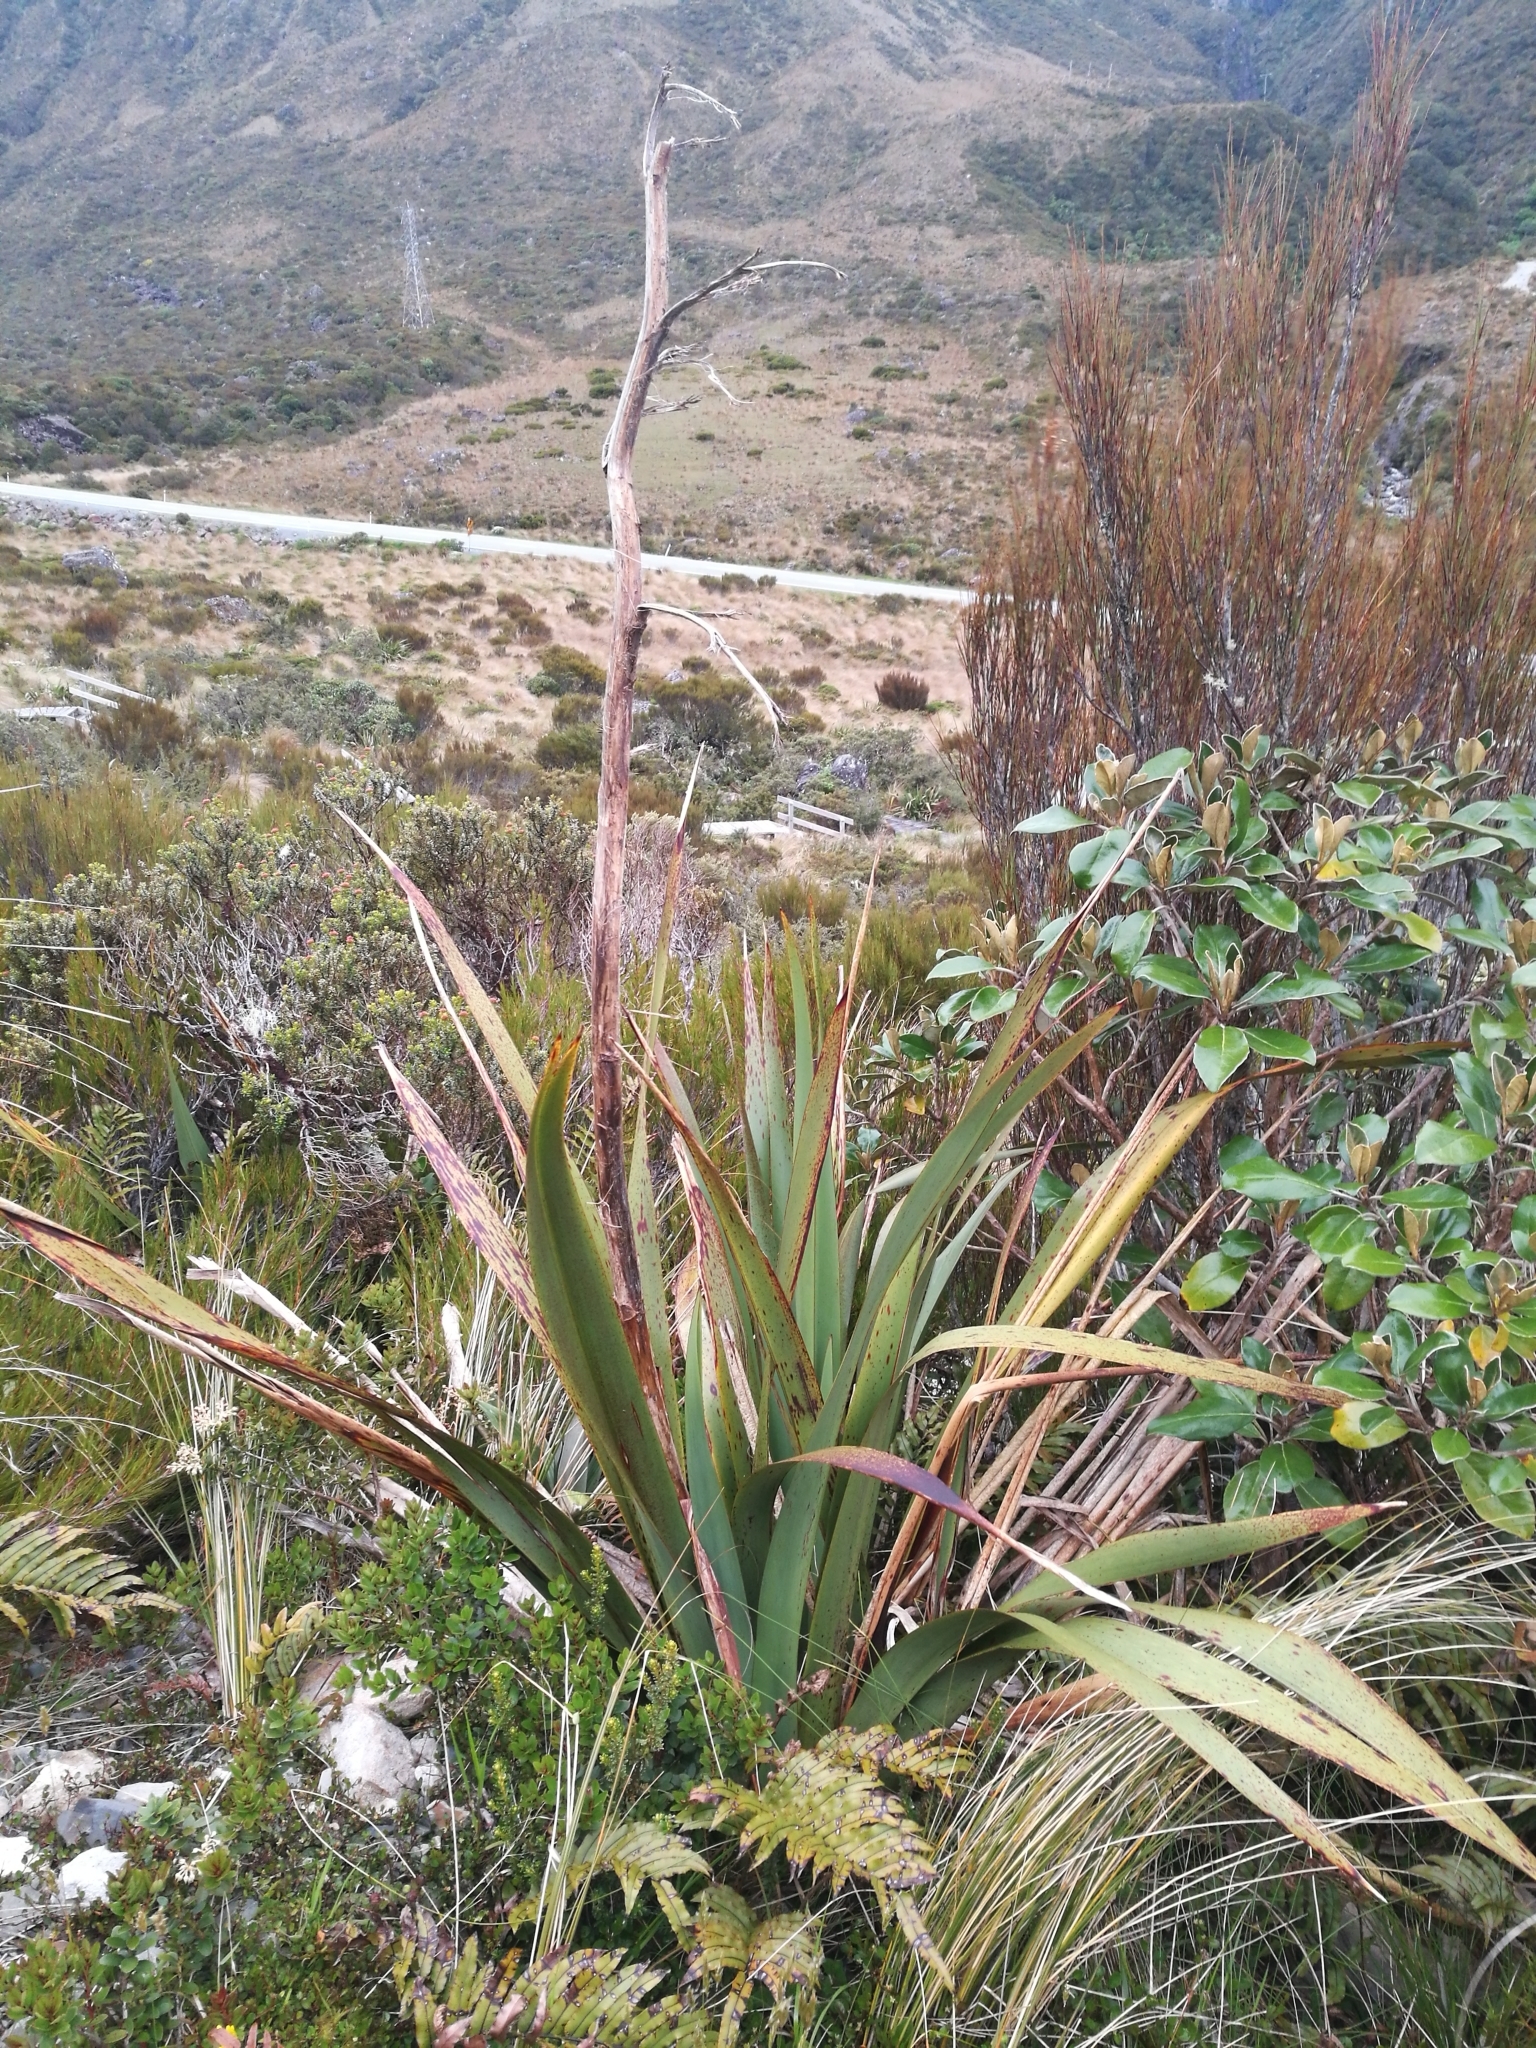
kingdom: Plantae
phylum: Tracheophyta
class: Liliopsida
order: Asparagales
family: Asphodelaceae
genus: Phormium
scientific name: Phormium colensoi
